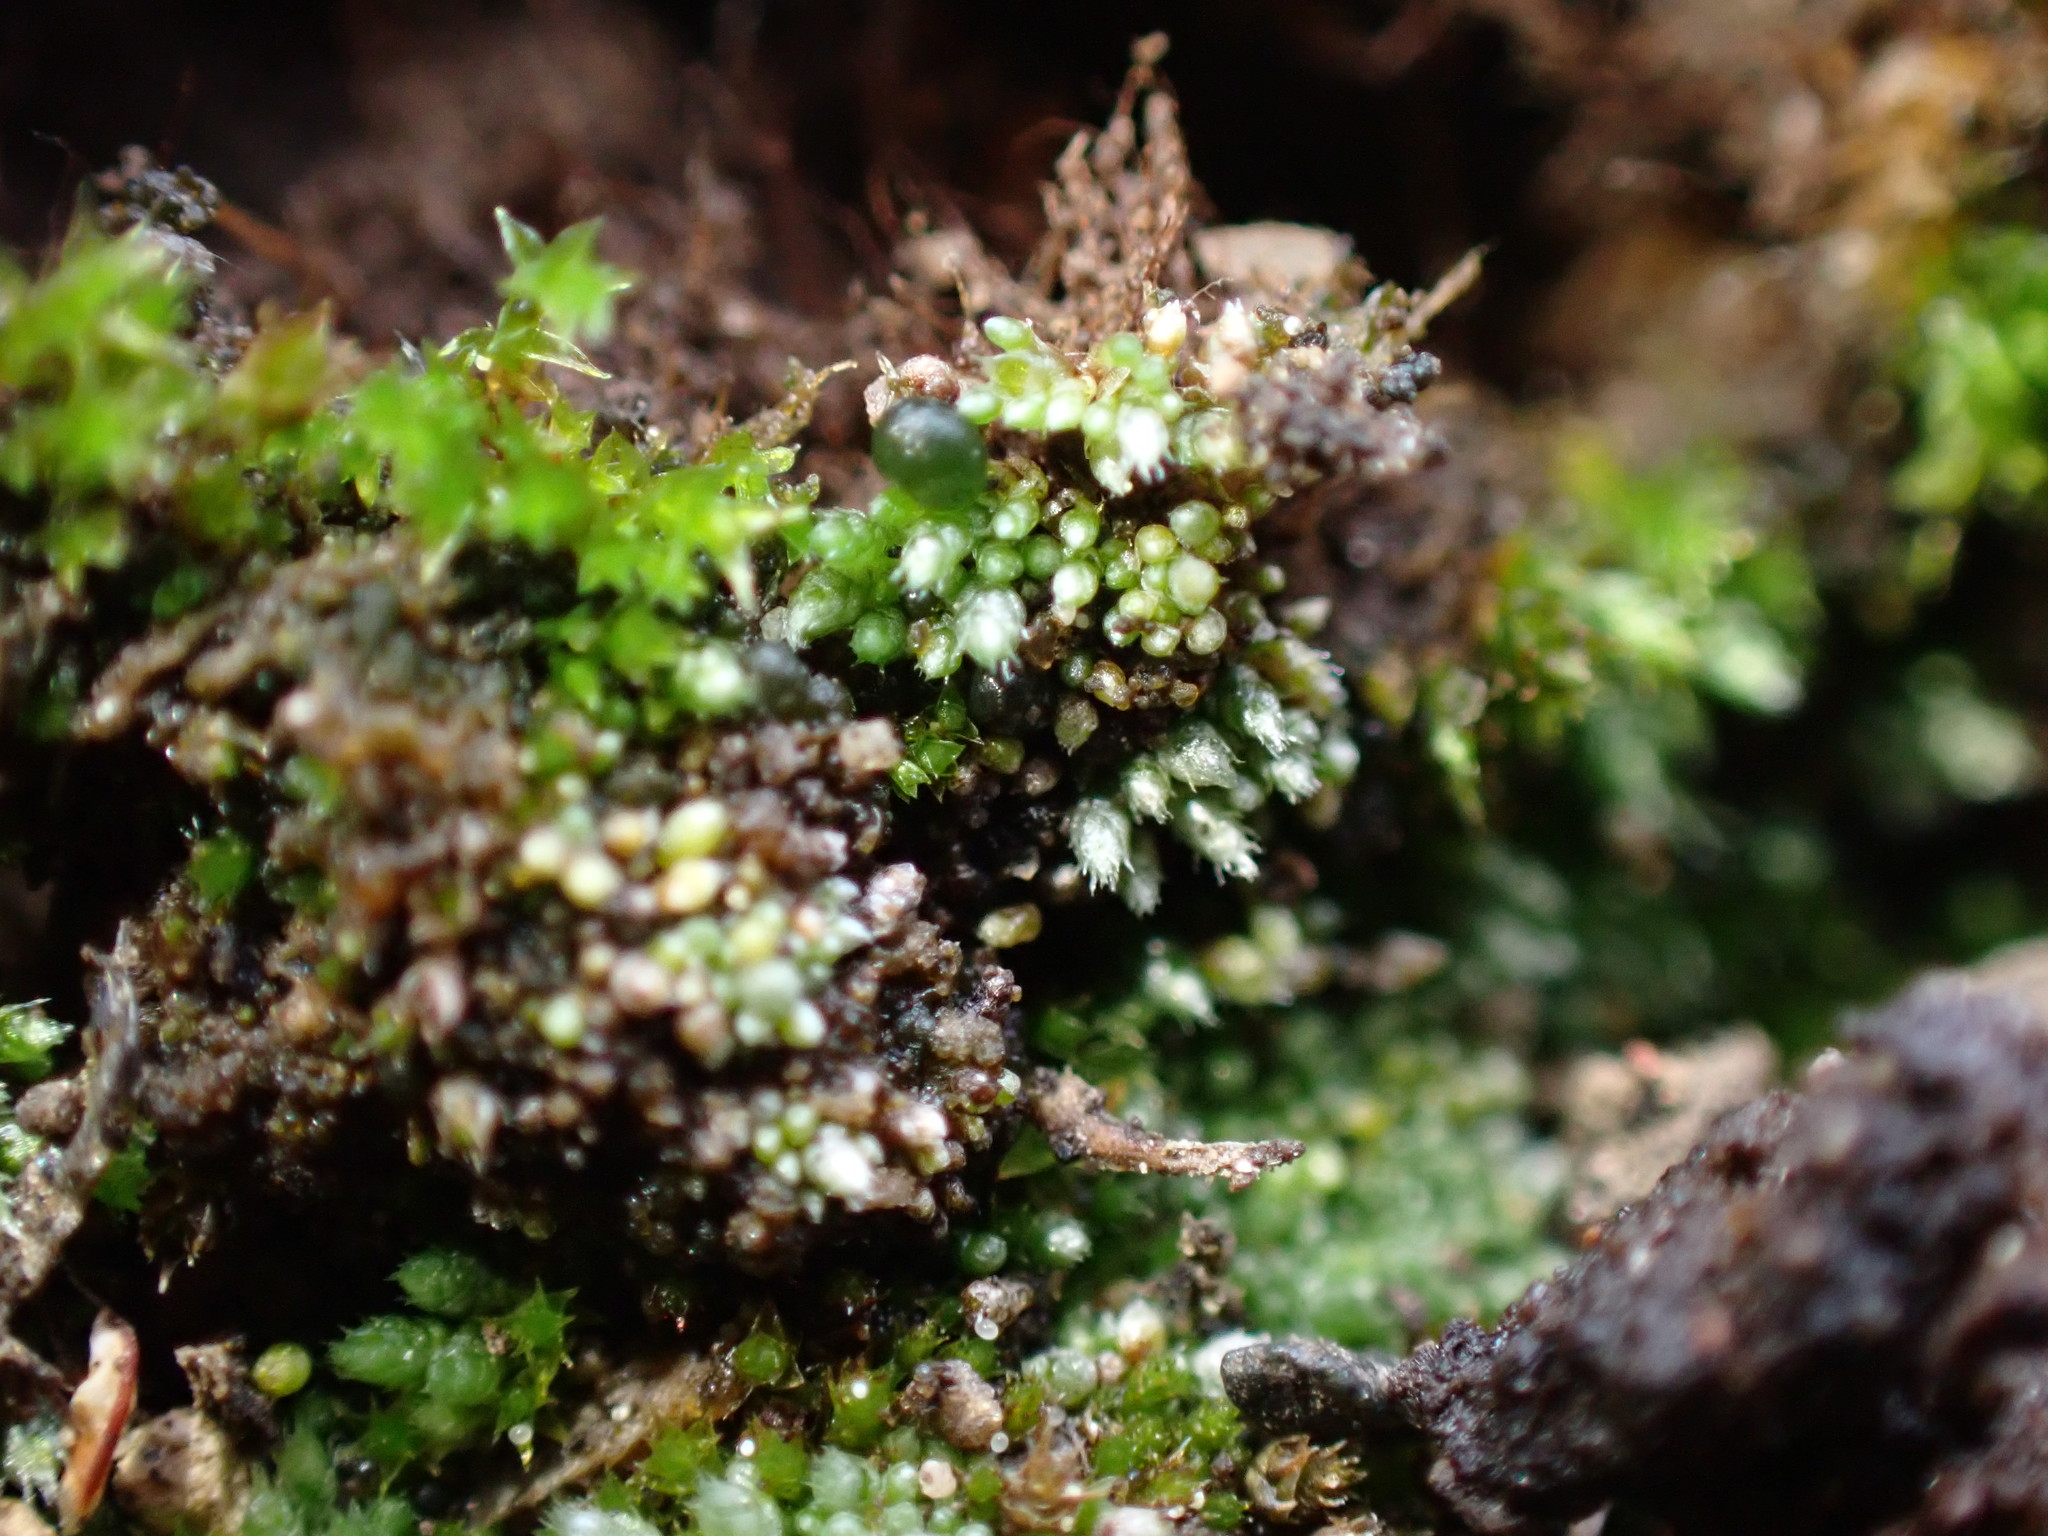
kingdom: Plantae
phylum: Bryophyta
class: Bryopsida
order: Bryales
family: Bryaceae
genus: Bryum
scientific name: Bryum argenteum
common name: Silver-moss
